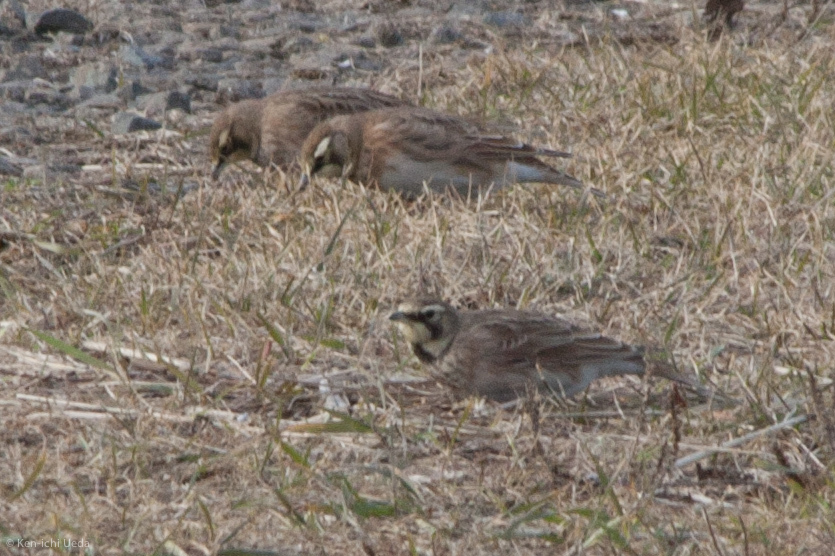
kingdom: Animalia
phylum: Chordata
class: Aves
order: Passeriformes
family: Alaudidae
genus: Eremophila
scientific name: Eremophila alpestris
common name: Horned lark
